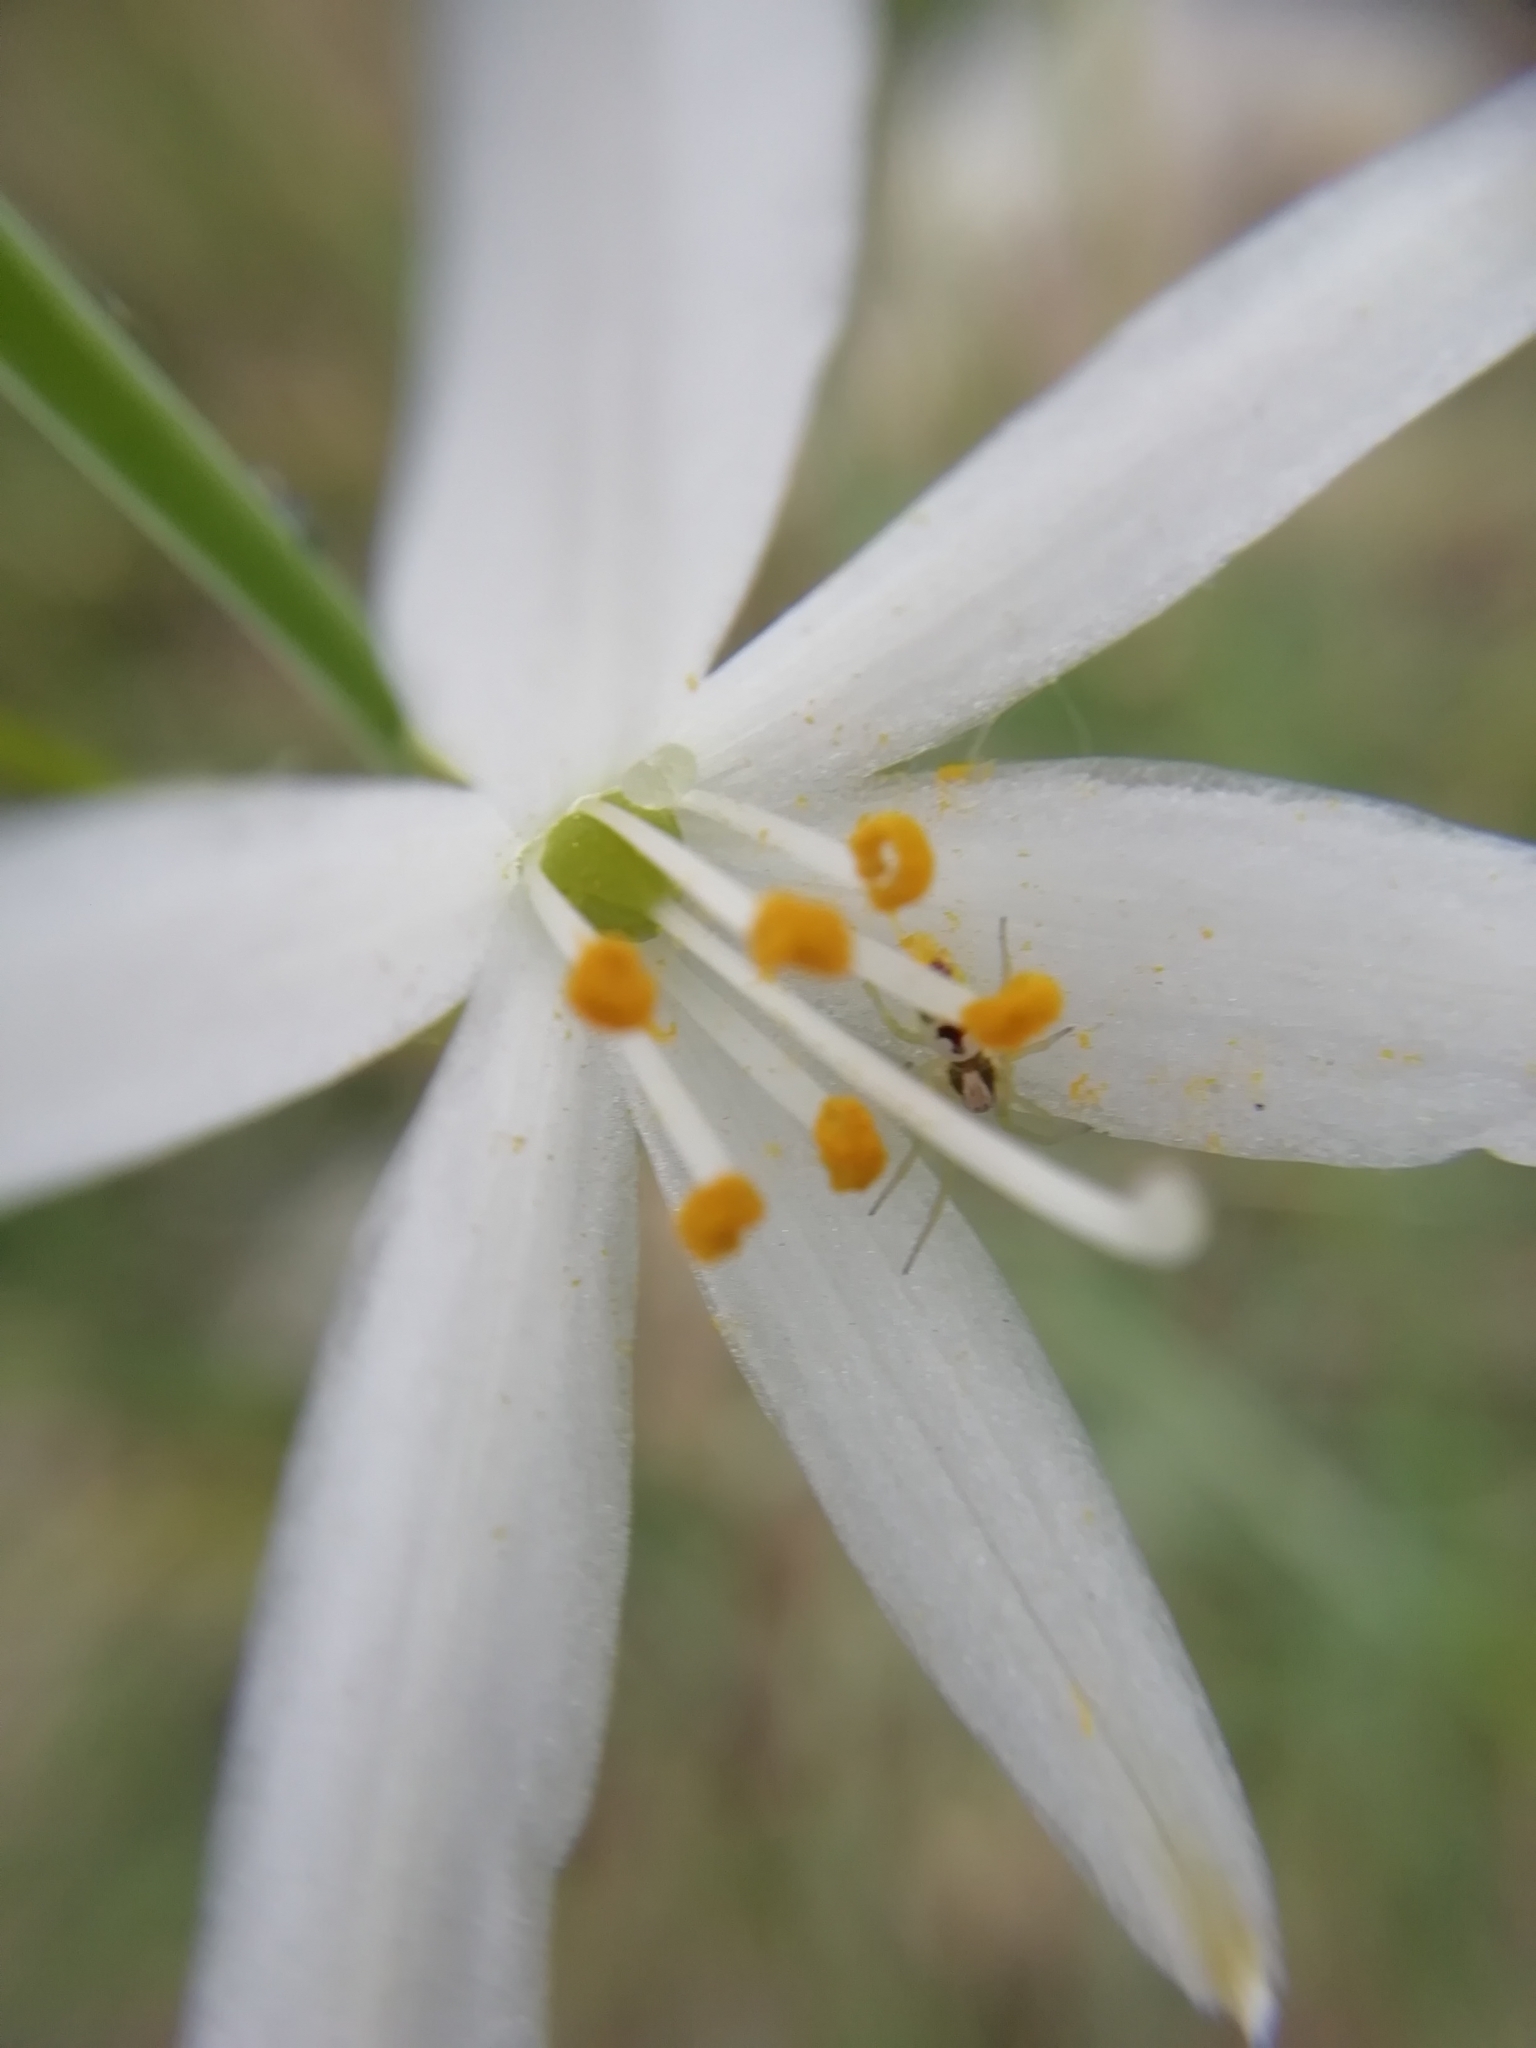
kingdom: Plantae
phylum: Tracheophyta
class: Liliopsida
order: Asparagales
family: Asparagaceae
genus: Anthericum
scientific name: Anthericum liliago
